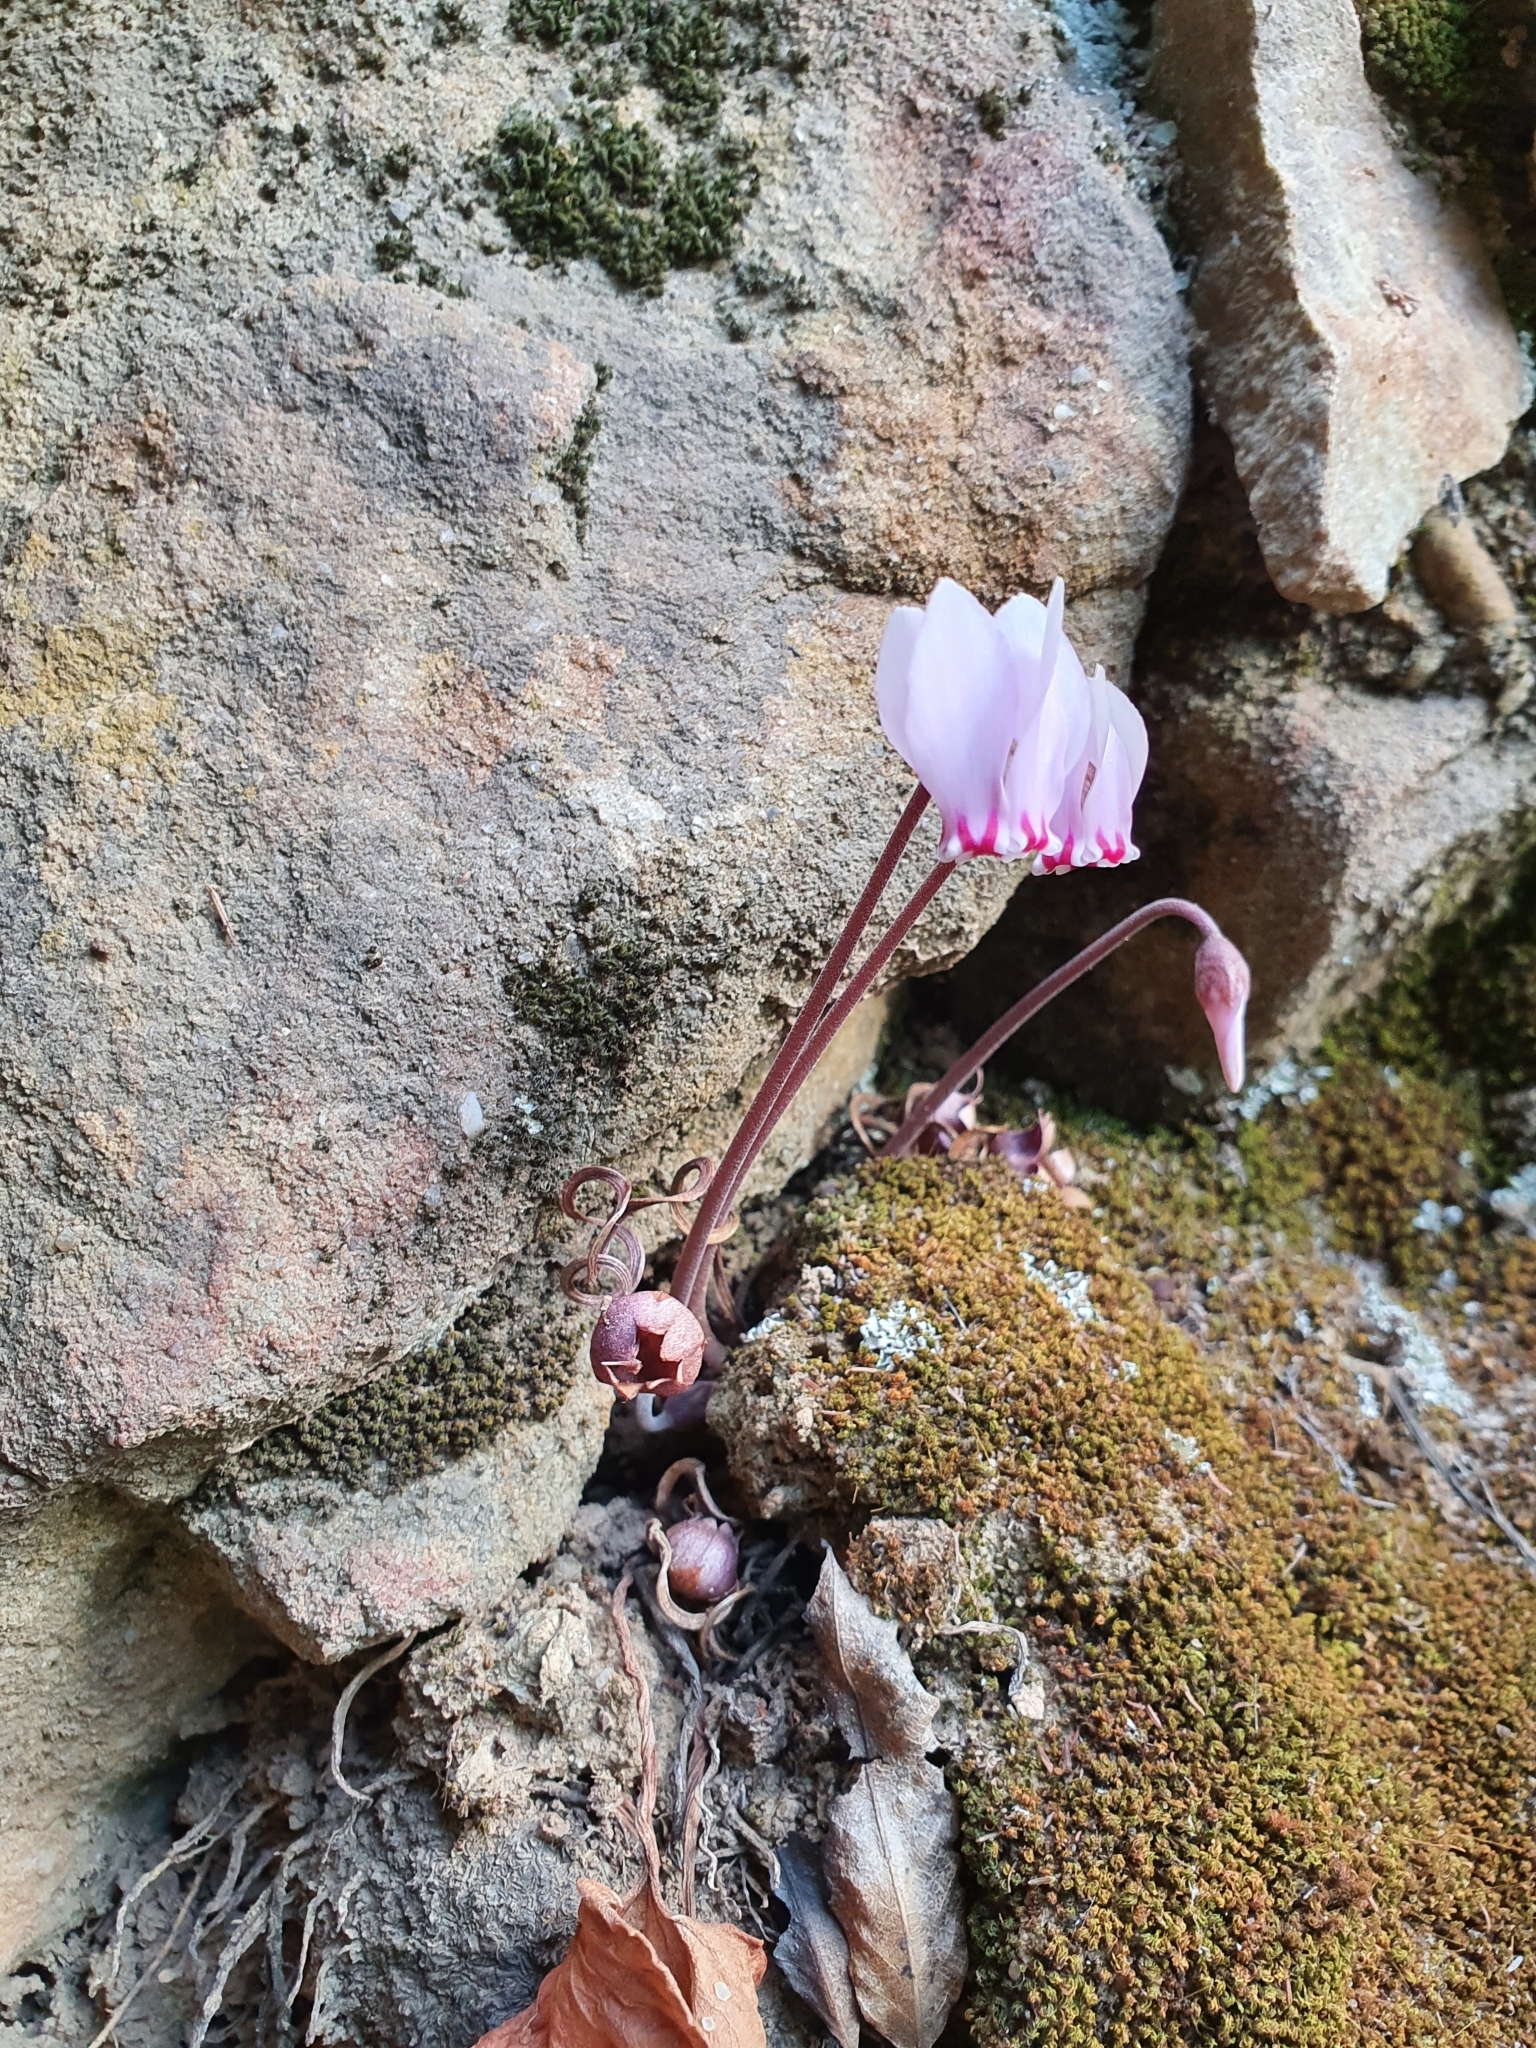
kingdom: Plantae
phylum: Tracheophyta
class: Magnoliopsida
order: Ericales
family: Primulaceae
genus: Cyclamen
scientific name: Cyclamen africanum
